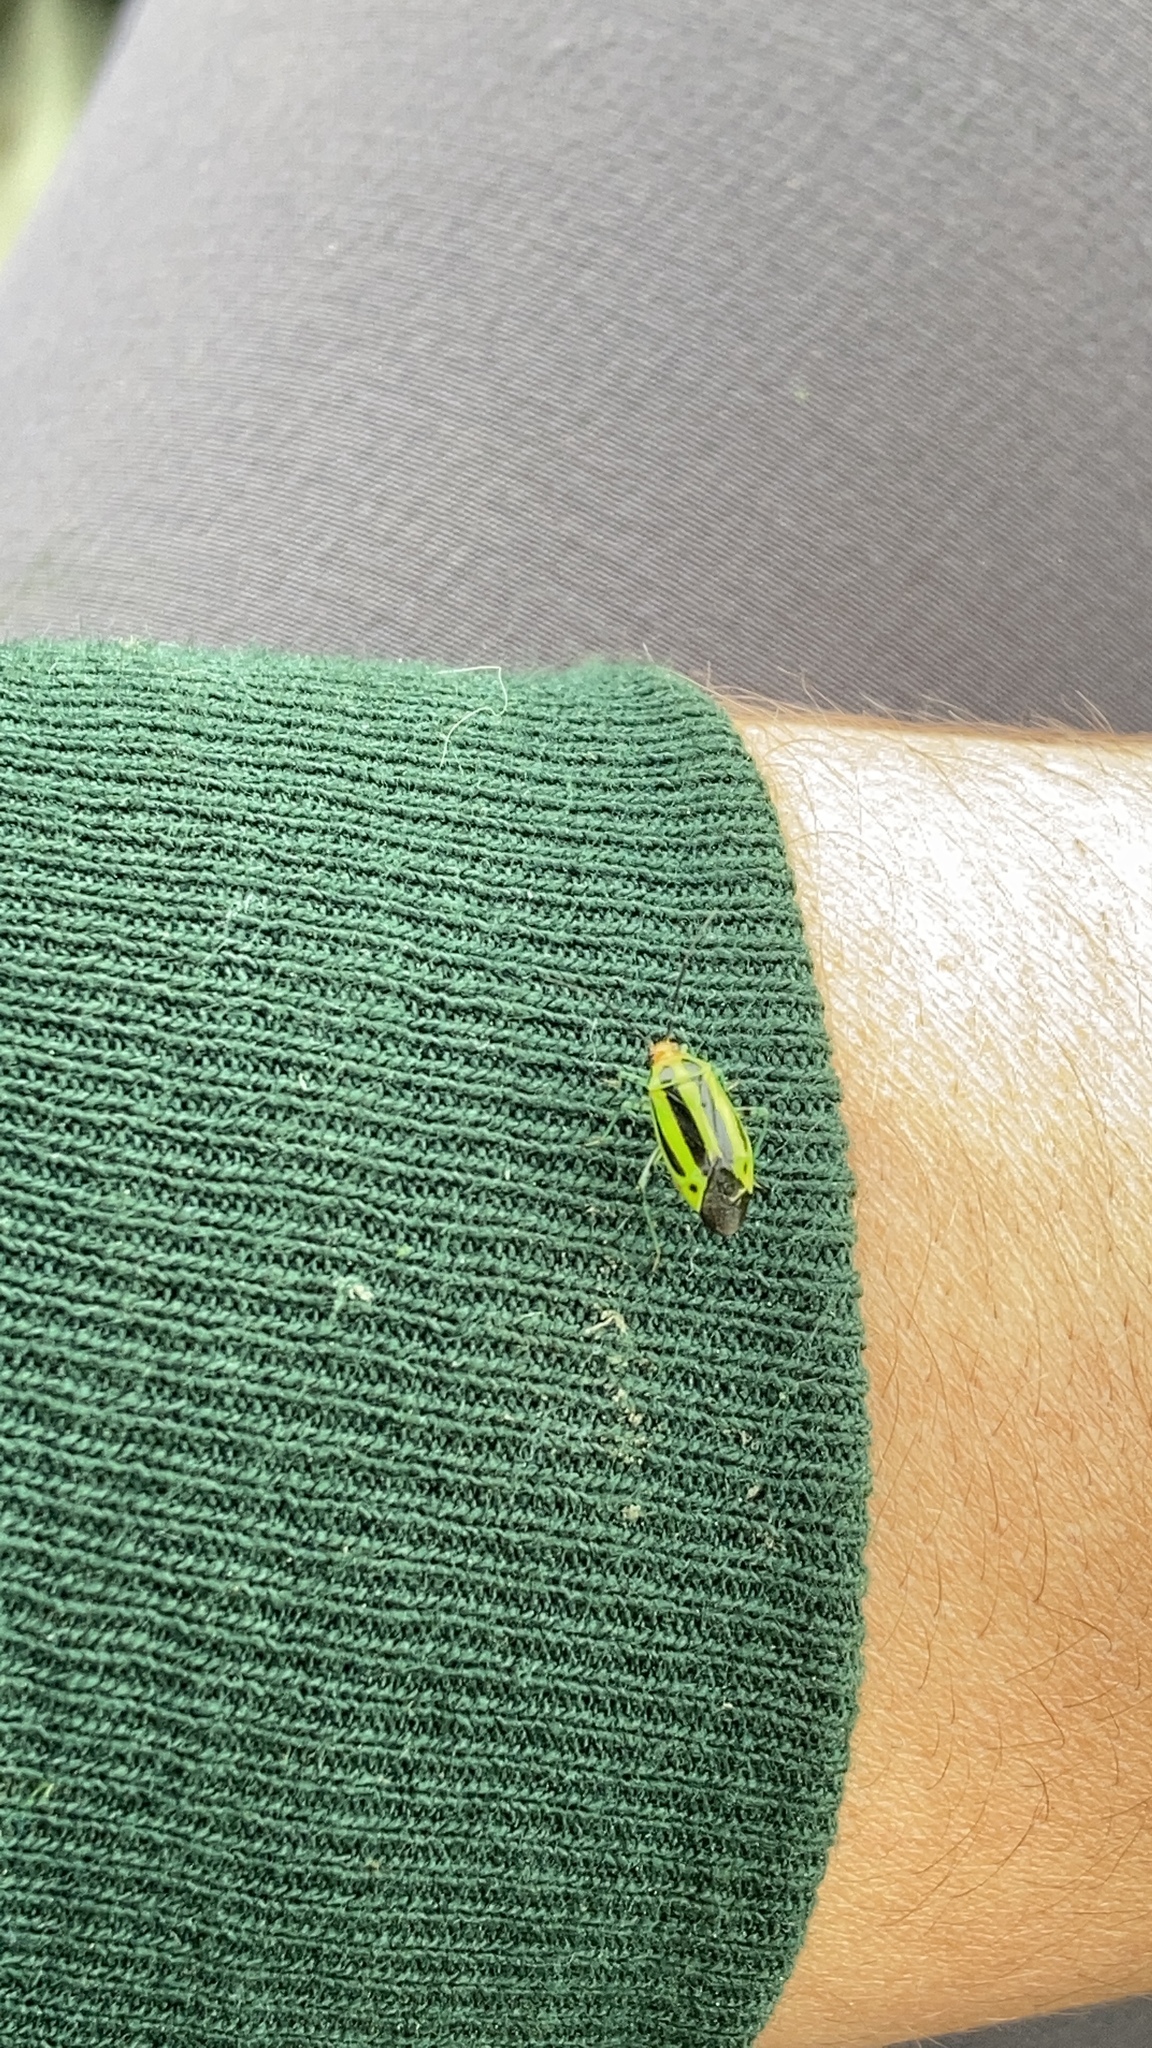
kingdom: Animalia
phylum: Arthropoda
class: Insecta
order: Hemiptera
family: Miridae
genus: Poecilocapsus
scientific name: Poecilocapsus lineatus
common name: Four-lined plant bug
